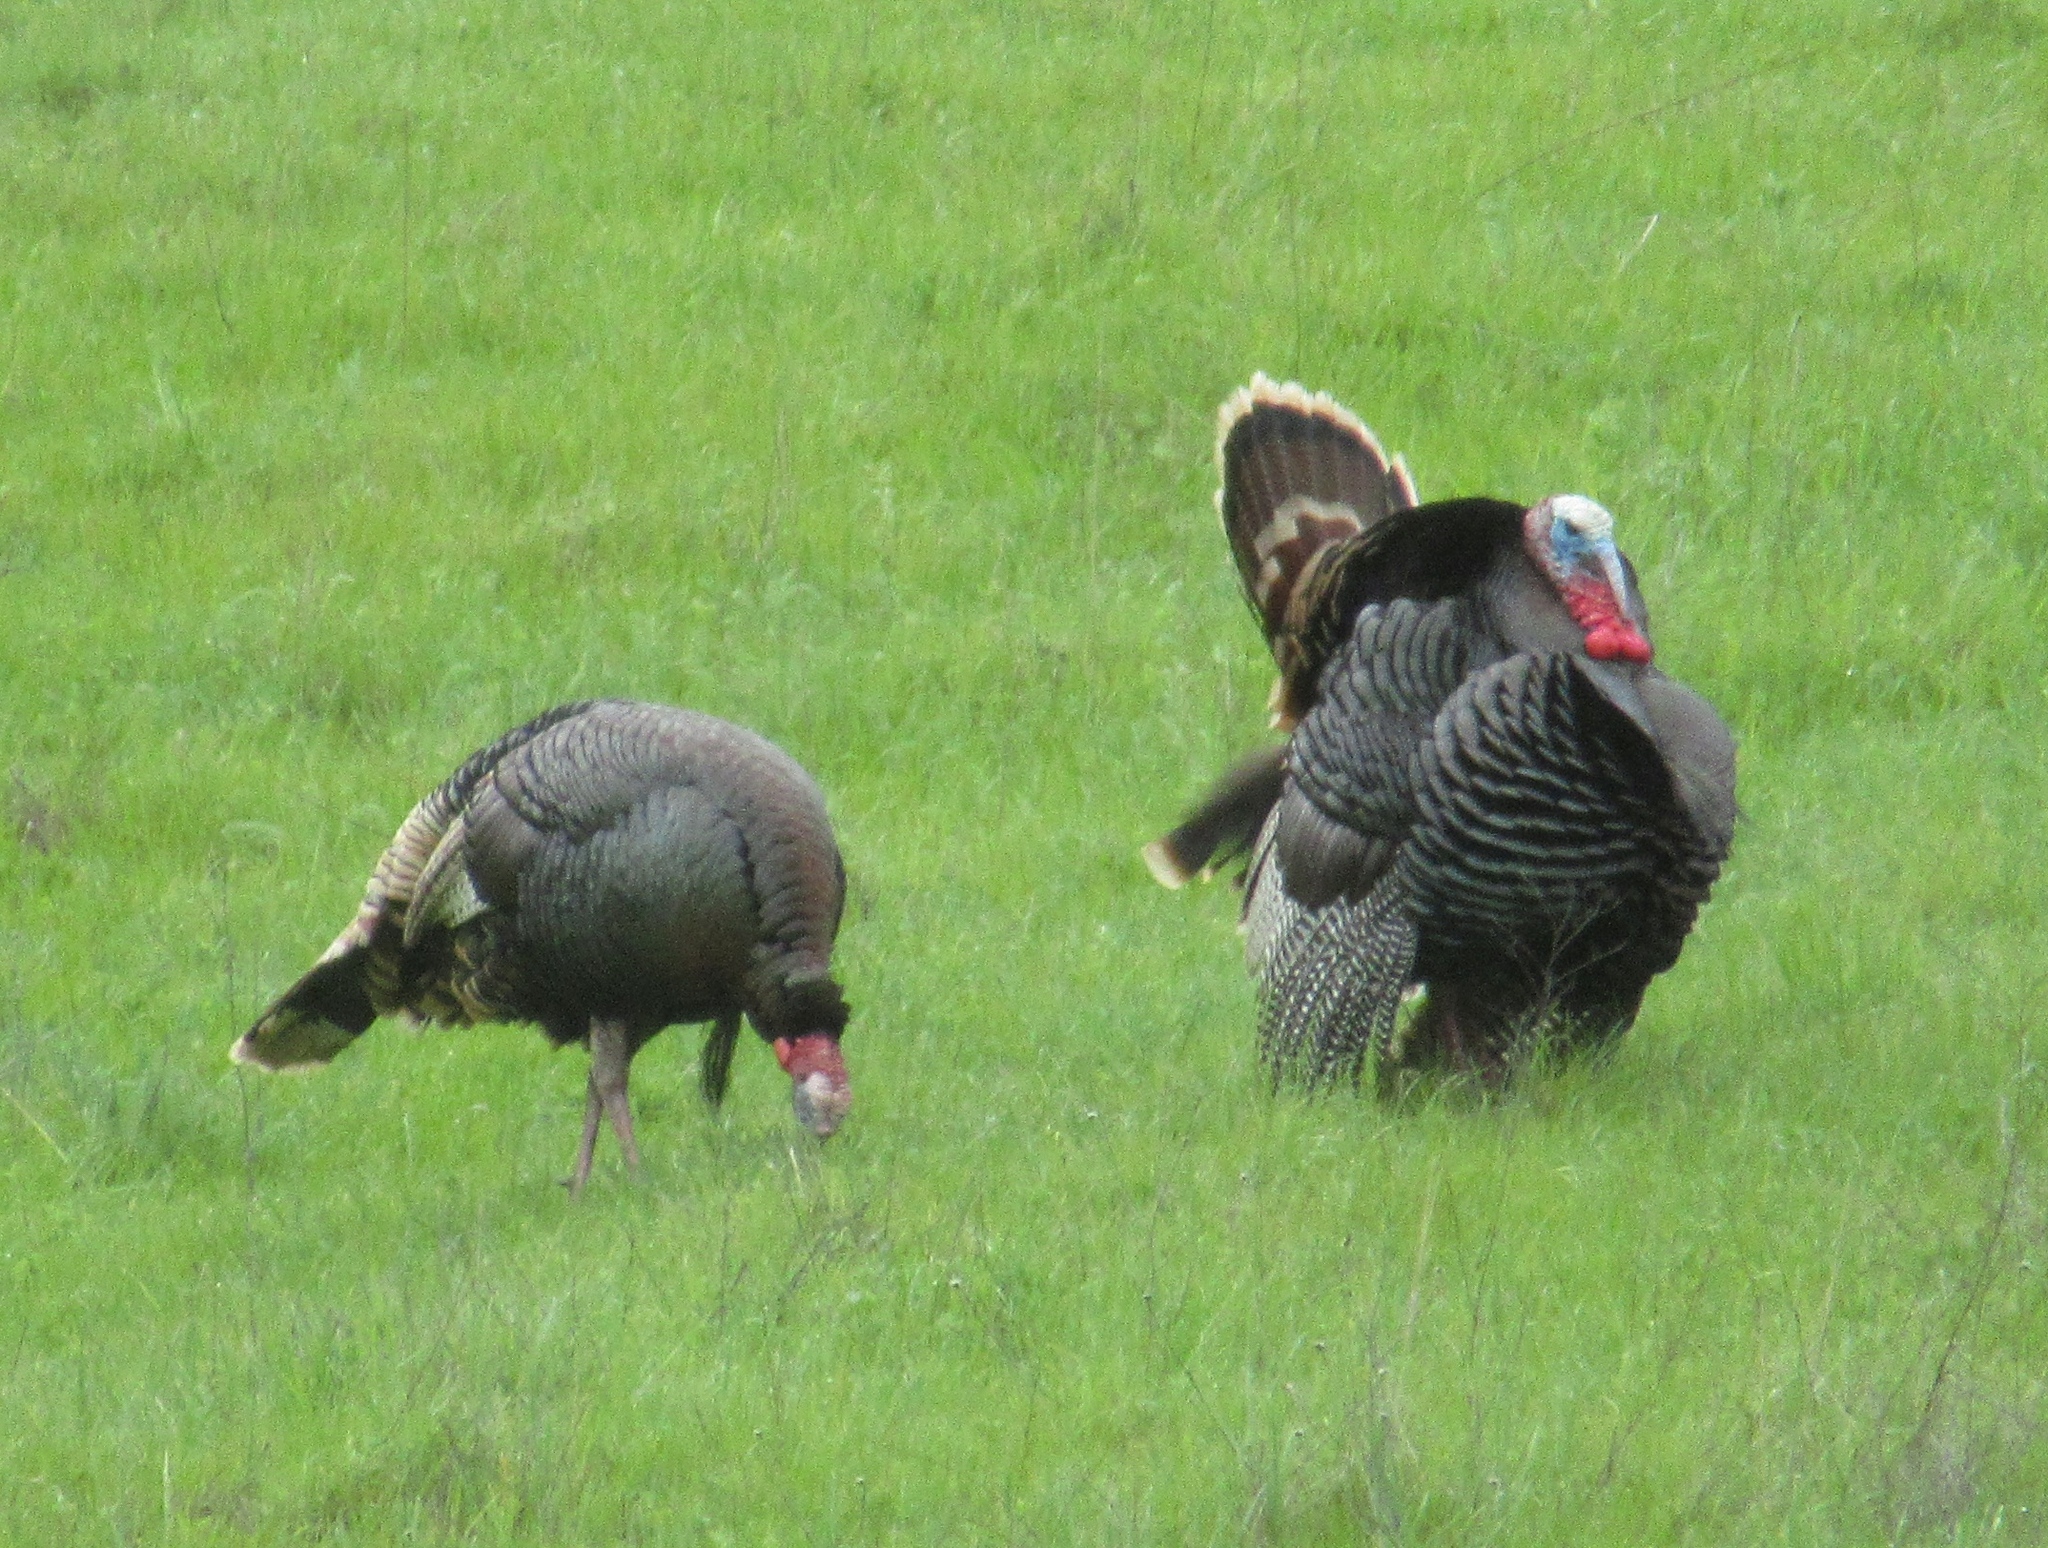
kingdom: Animalia
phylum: Chordata
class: Aves
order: Galliformes
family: Phasianidae
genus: Meleagris
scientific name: Meleagris gallopavo
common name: Wild turkey
